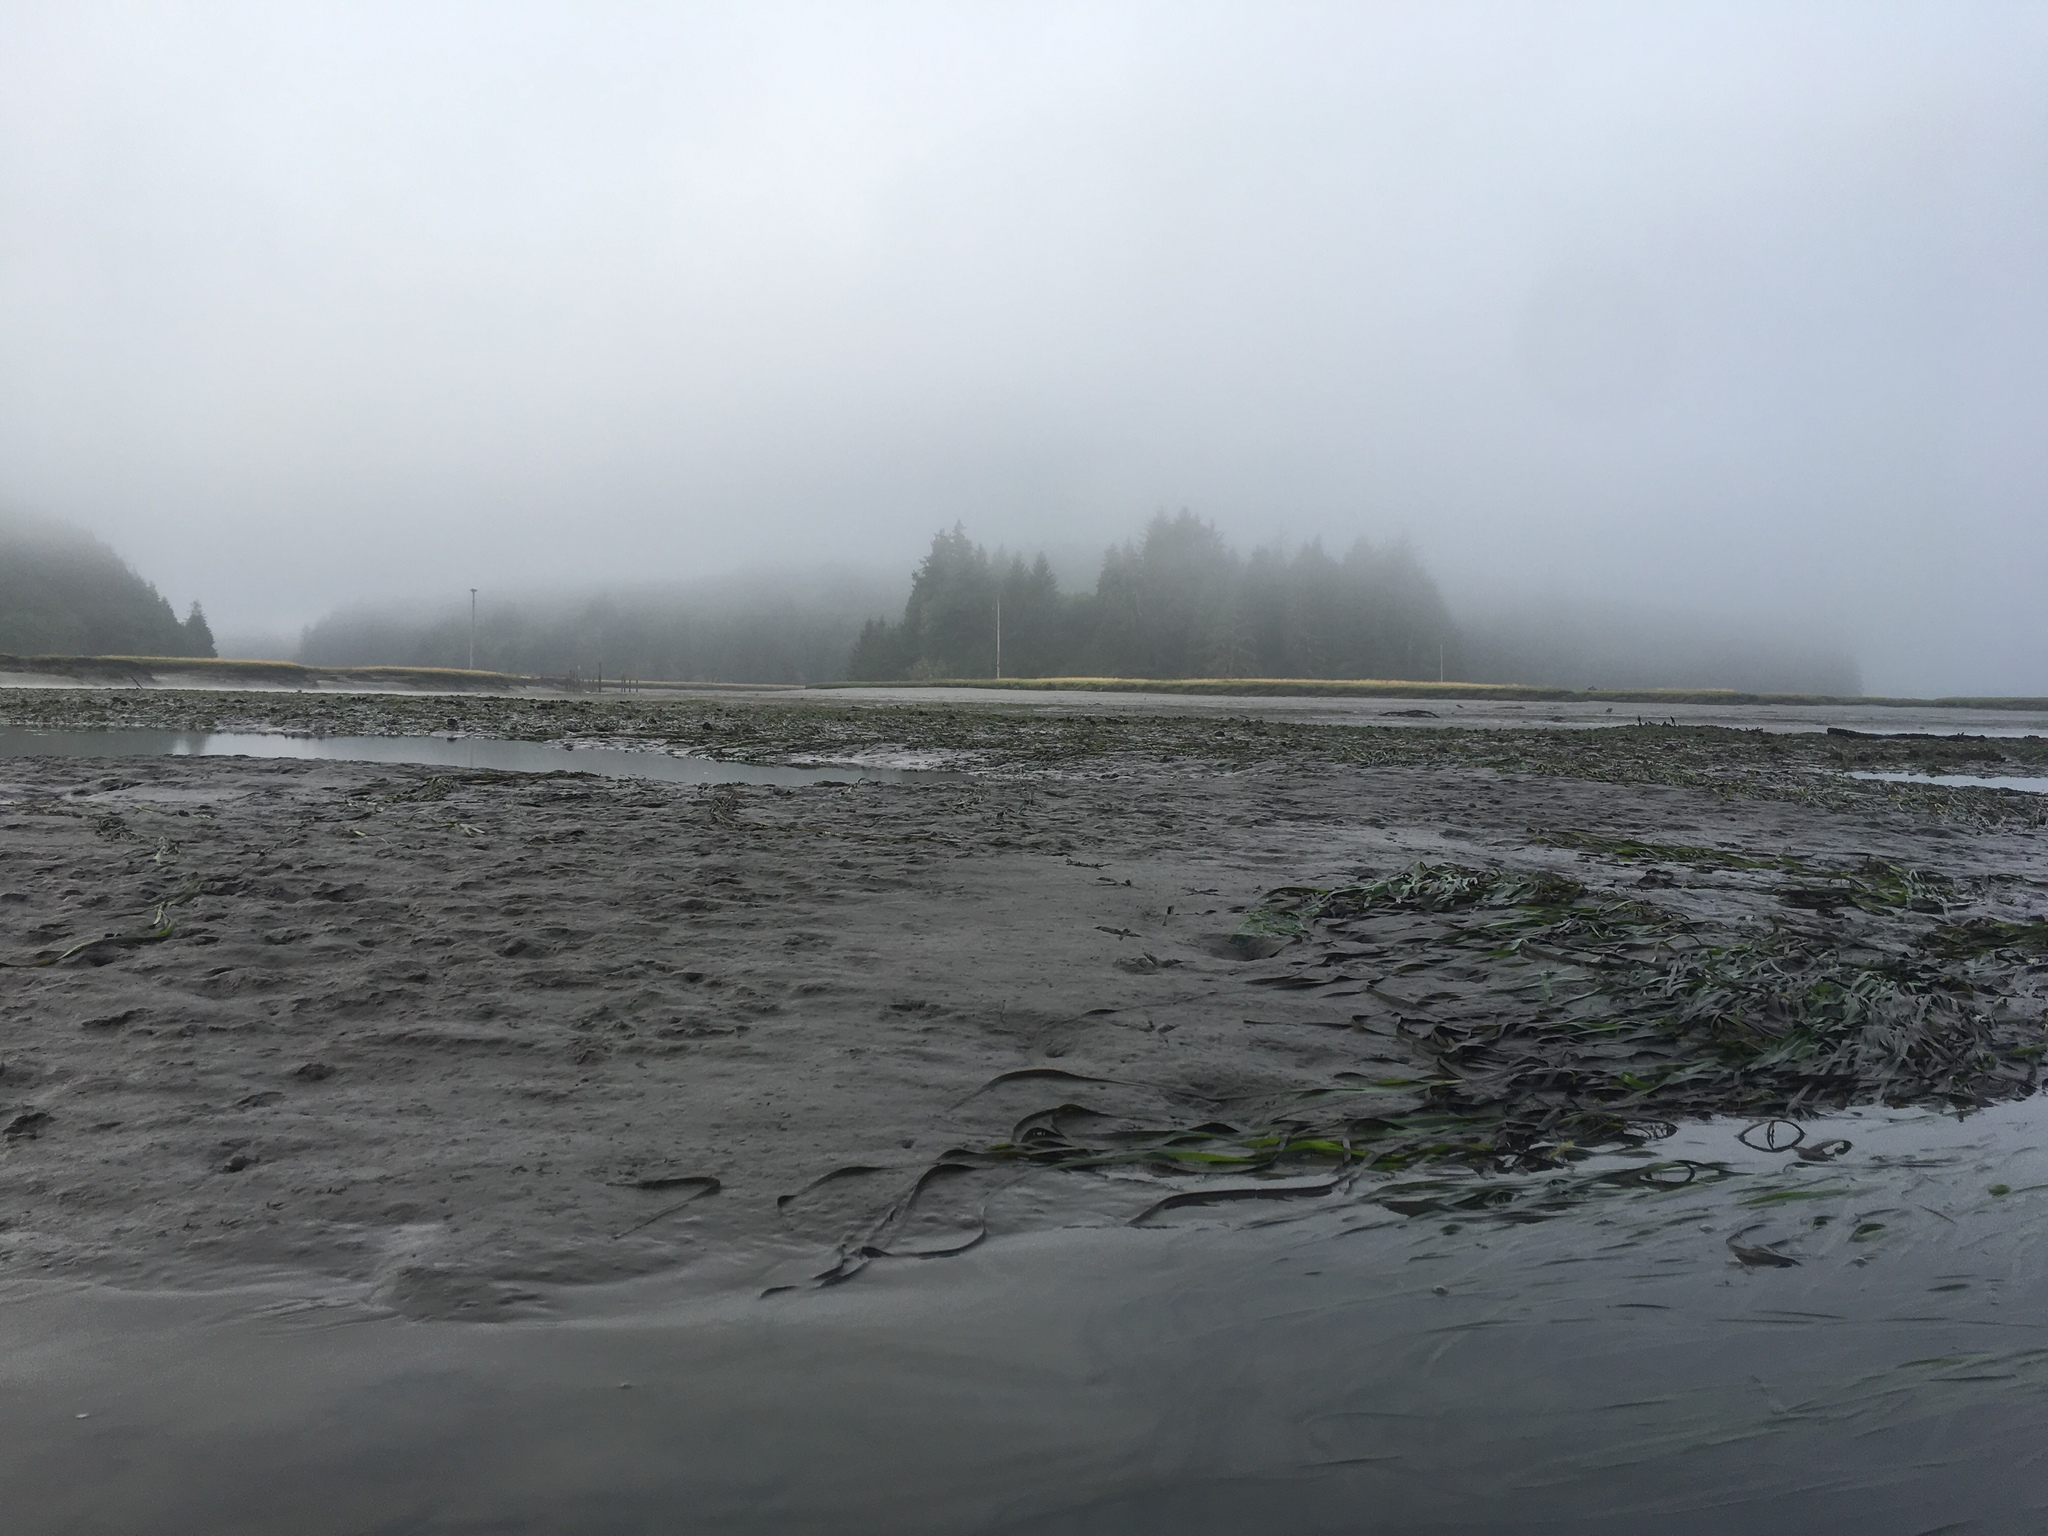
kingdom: Plantae
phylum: Tracheophyta
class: Liliopsida
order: Alismatales
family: Zosteraceae
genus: Zostera
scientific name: Zostera marina
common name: Eelgrass
